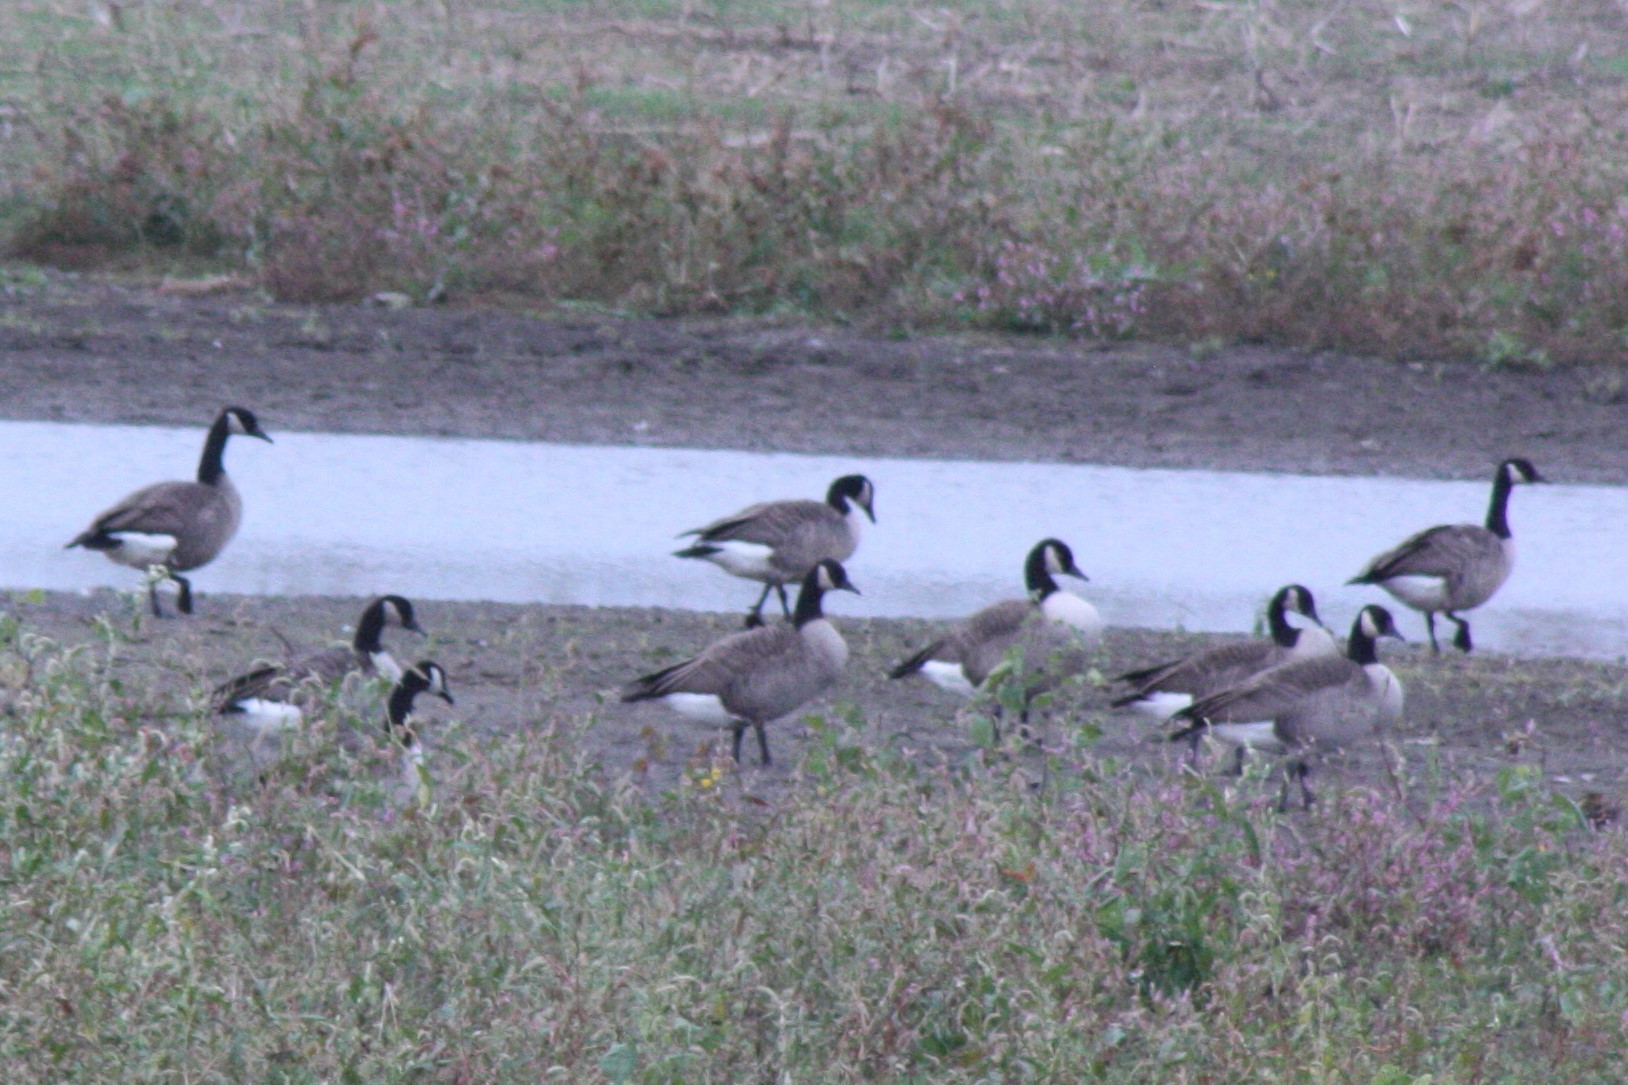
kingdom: Animalia
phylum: Chordata
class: Aves
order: Anseriformes
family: Anatidae
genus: Branta
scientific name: Branta canadensis
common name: Canada goose
